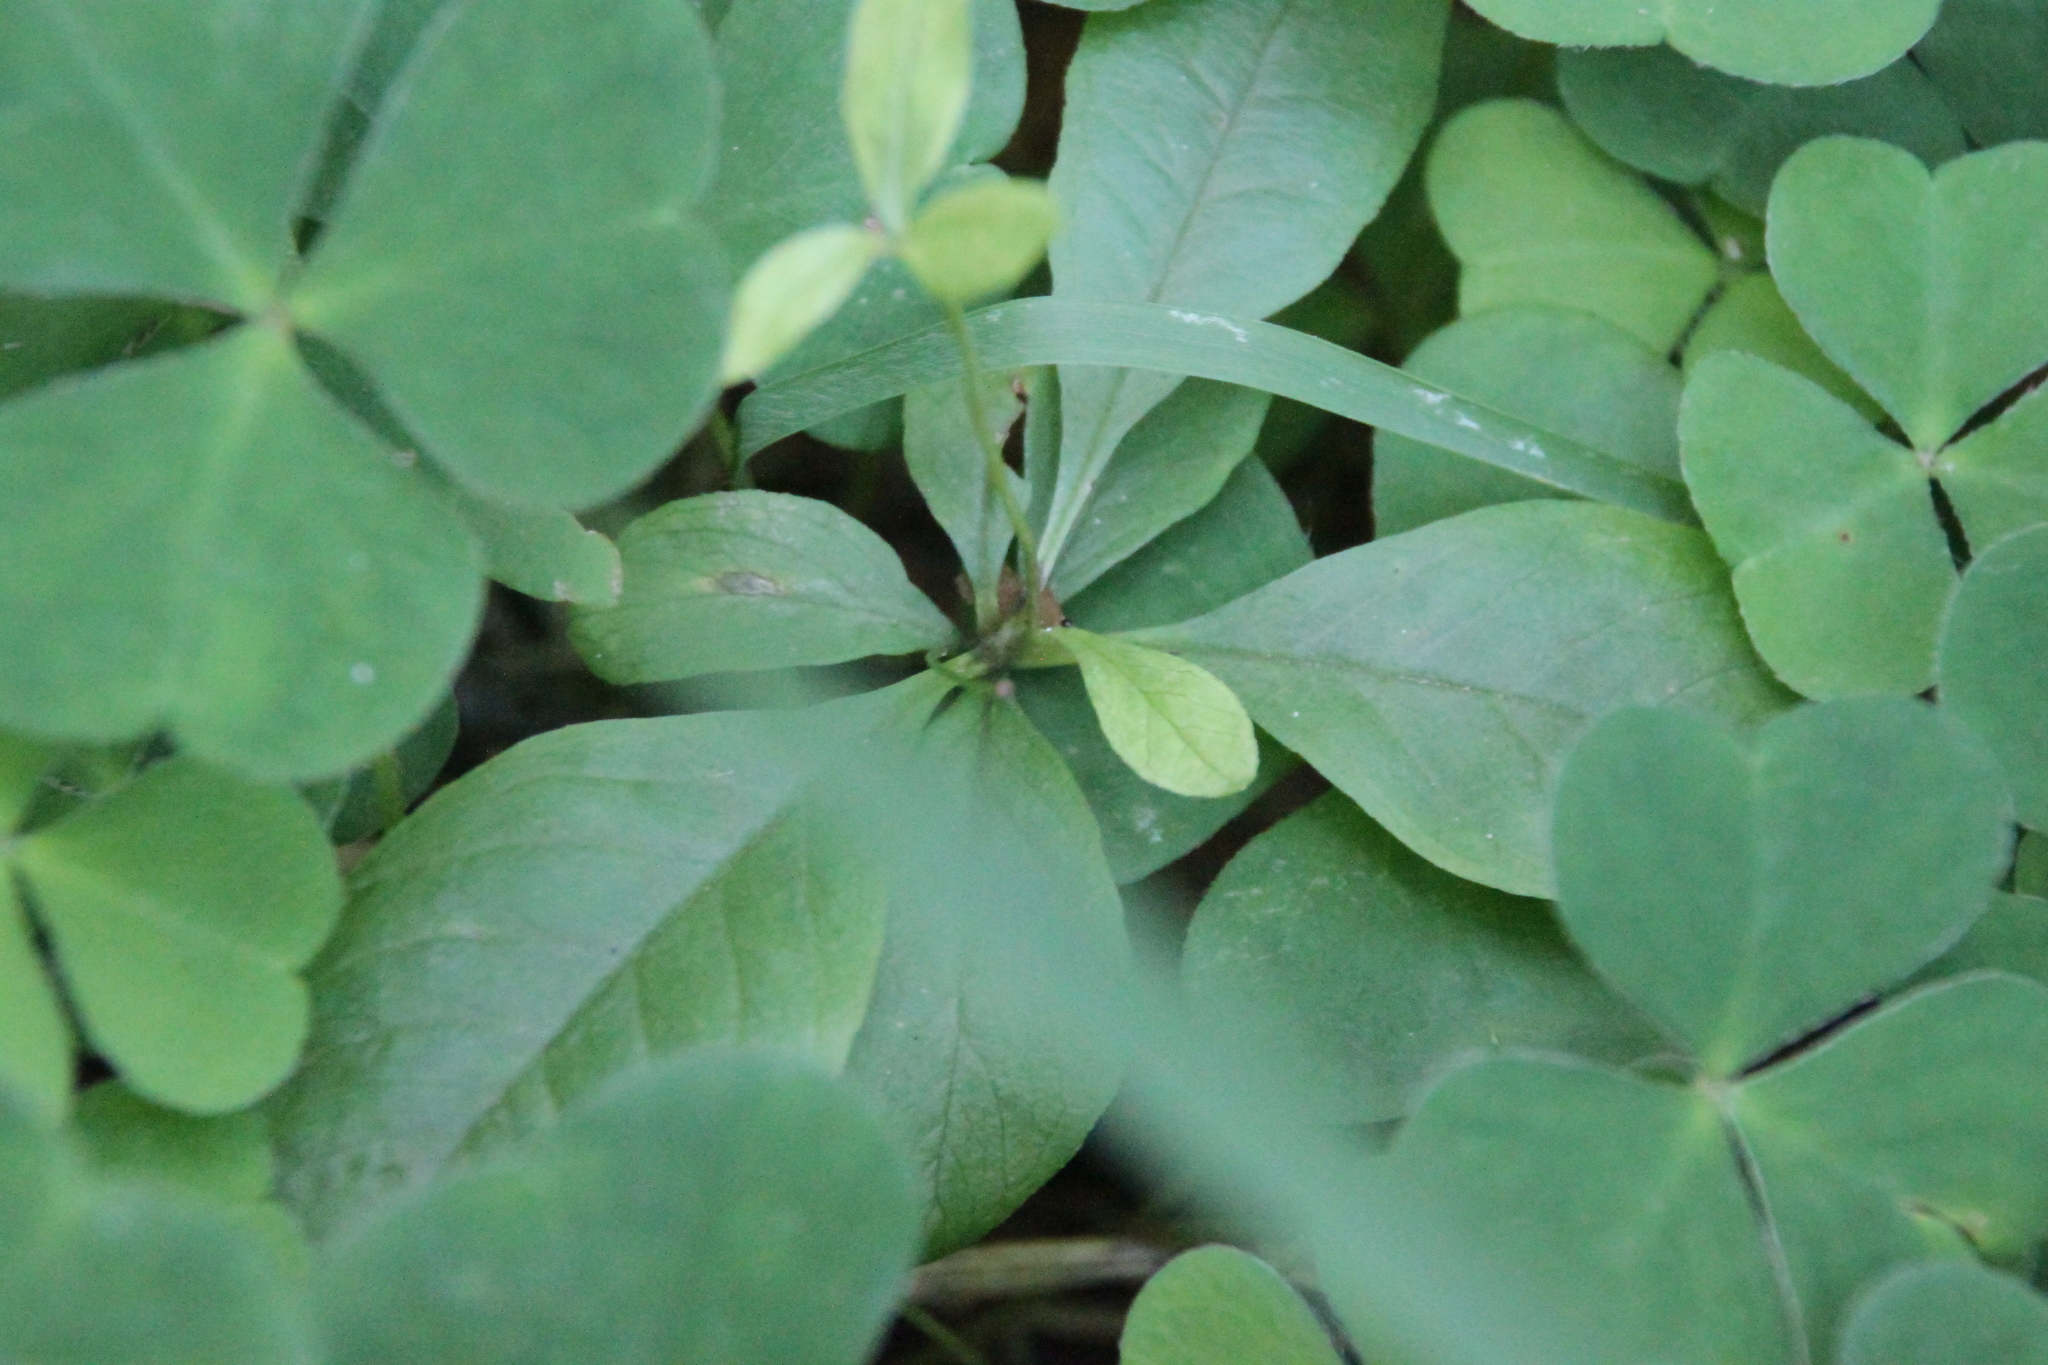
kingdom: Plantae
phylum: Tracheophyta
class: Magnoliopsida
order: Ericales
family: Primulaceae
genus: Lysimachia
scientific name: Lysimachia europaea
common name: Arctic starflower
